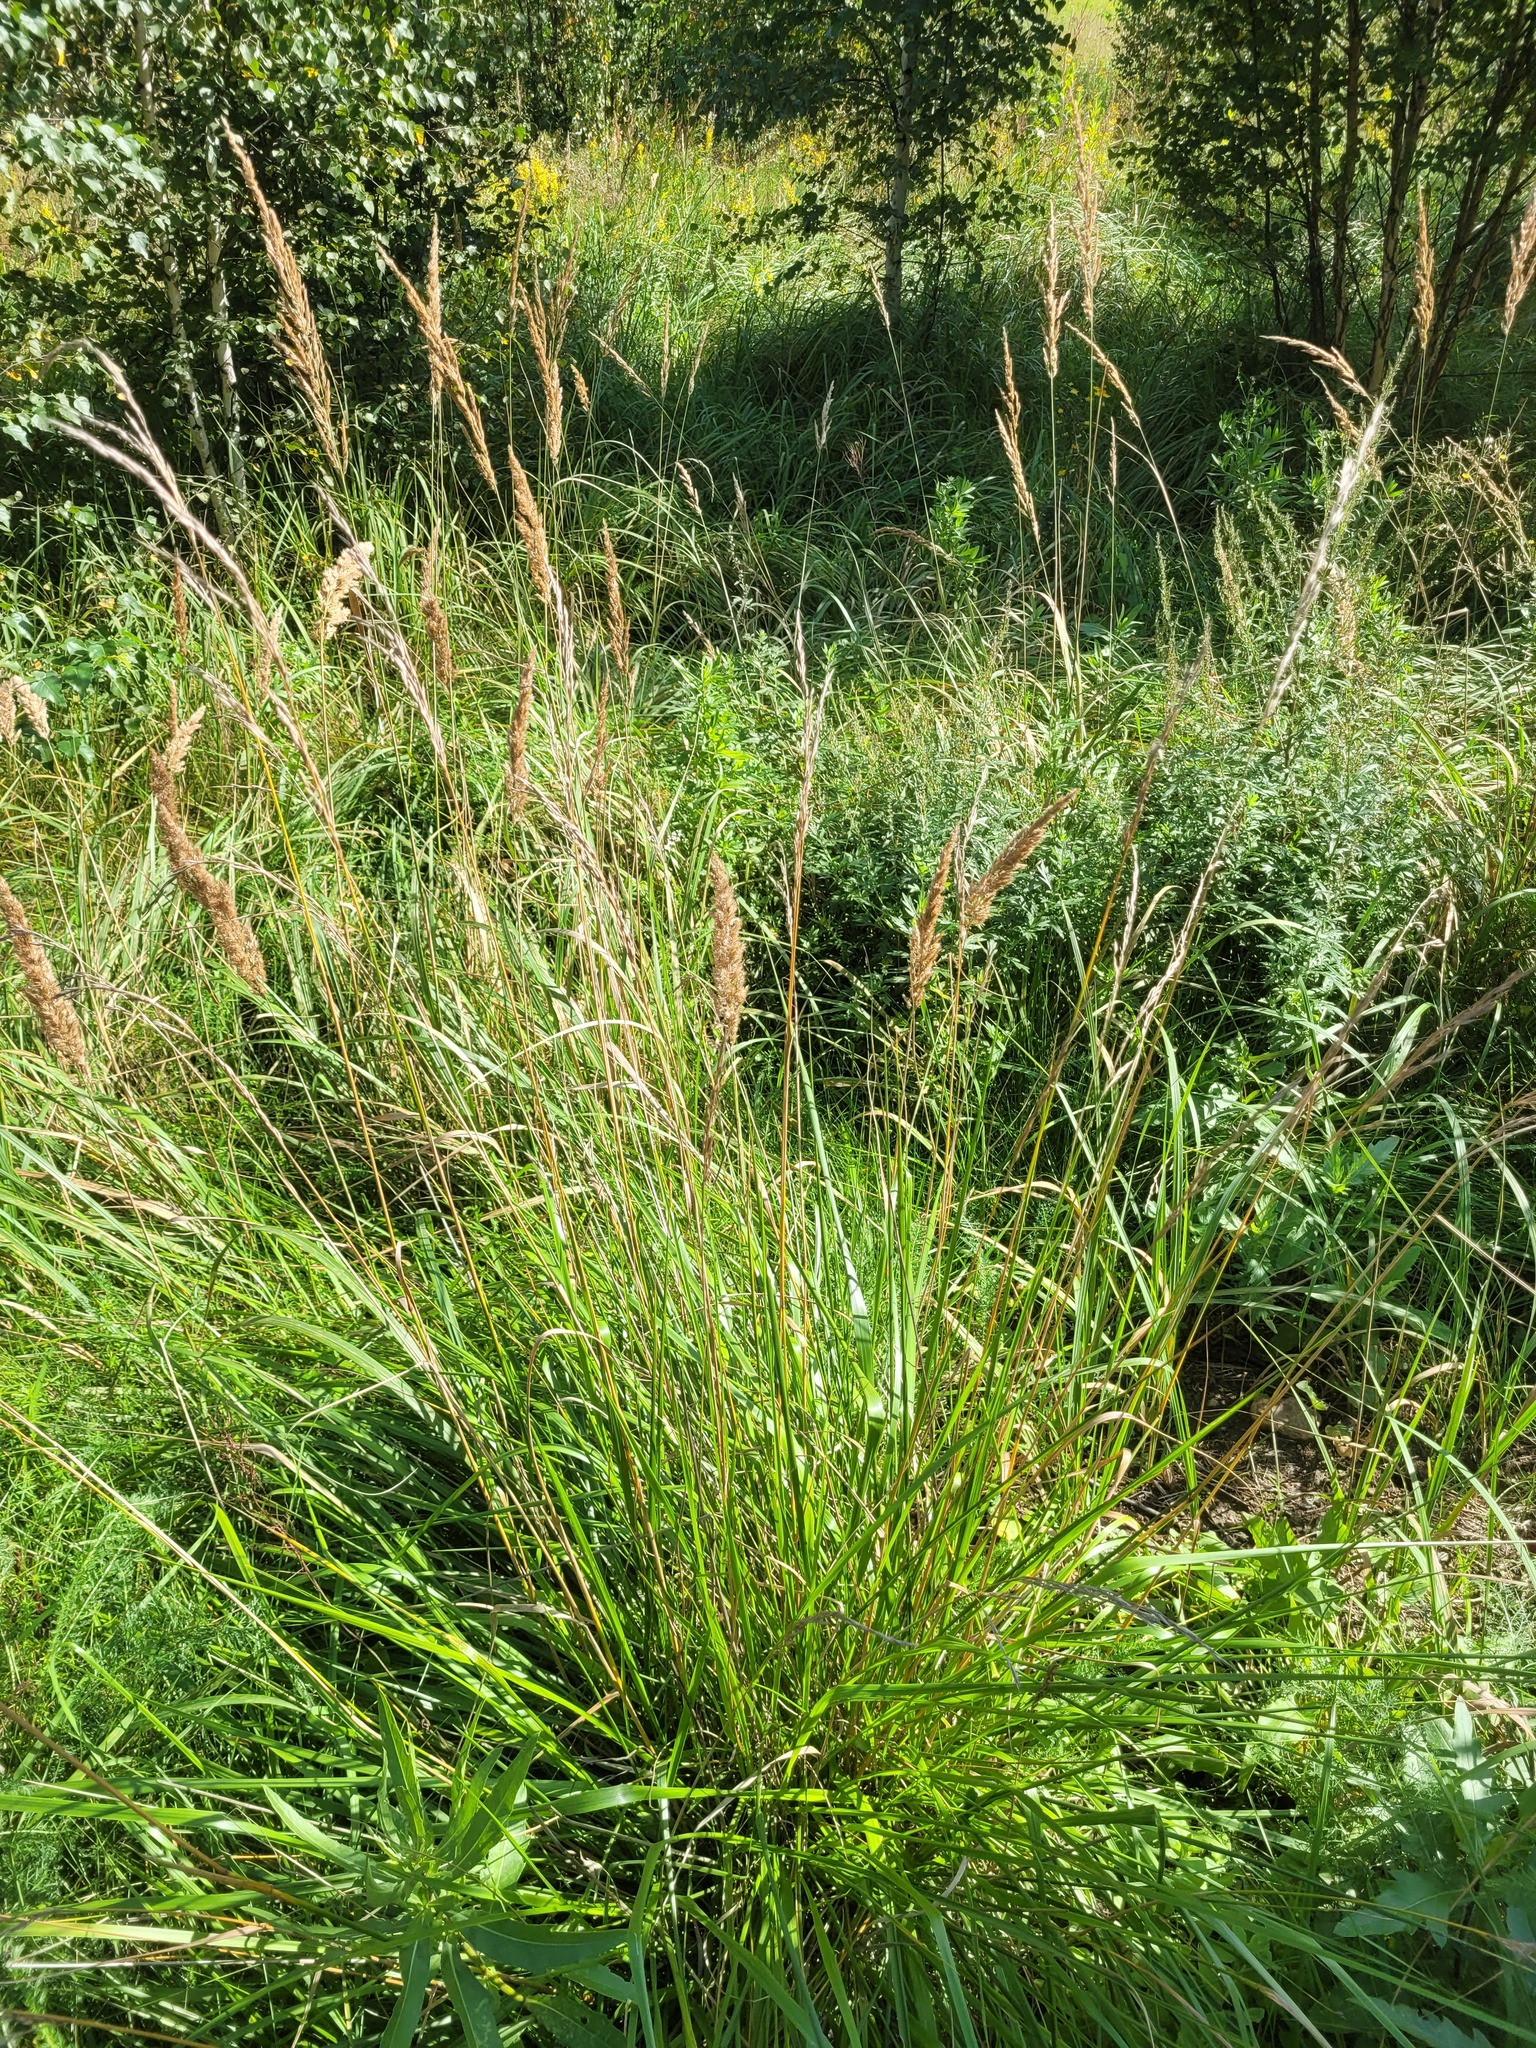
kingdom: Plantae
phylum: Tracheophyta
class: Liliopsida
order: Poales
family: Poaceae
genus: Lolium
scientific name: Lolium arundinaceum
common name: Reed fescue
